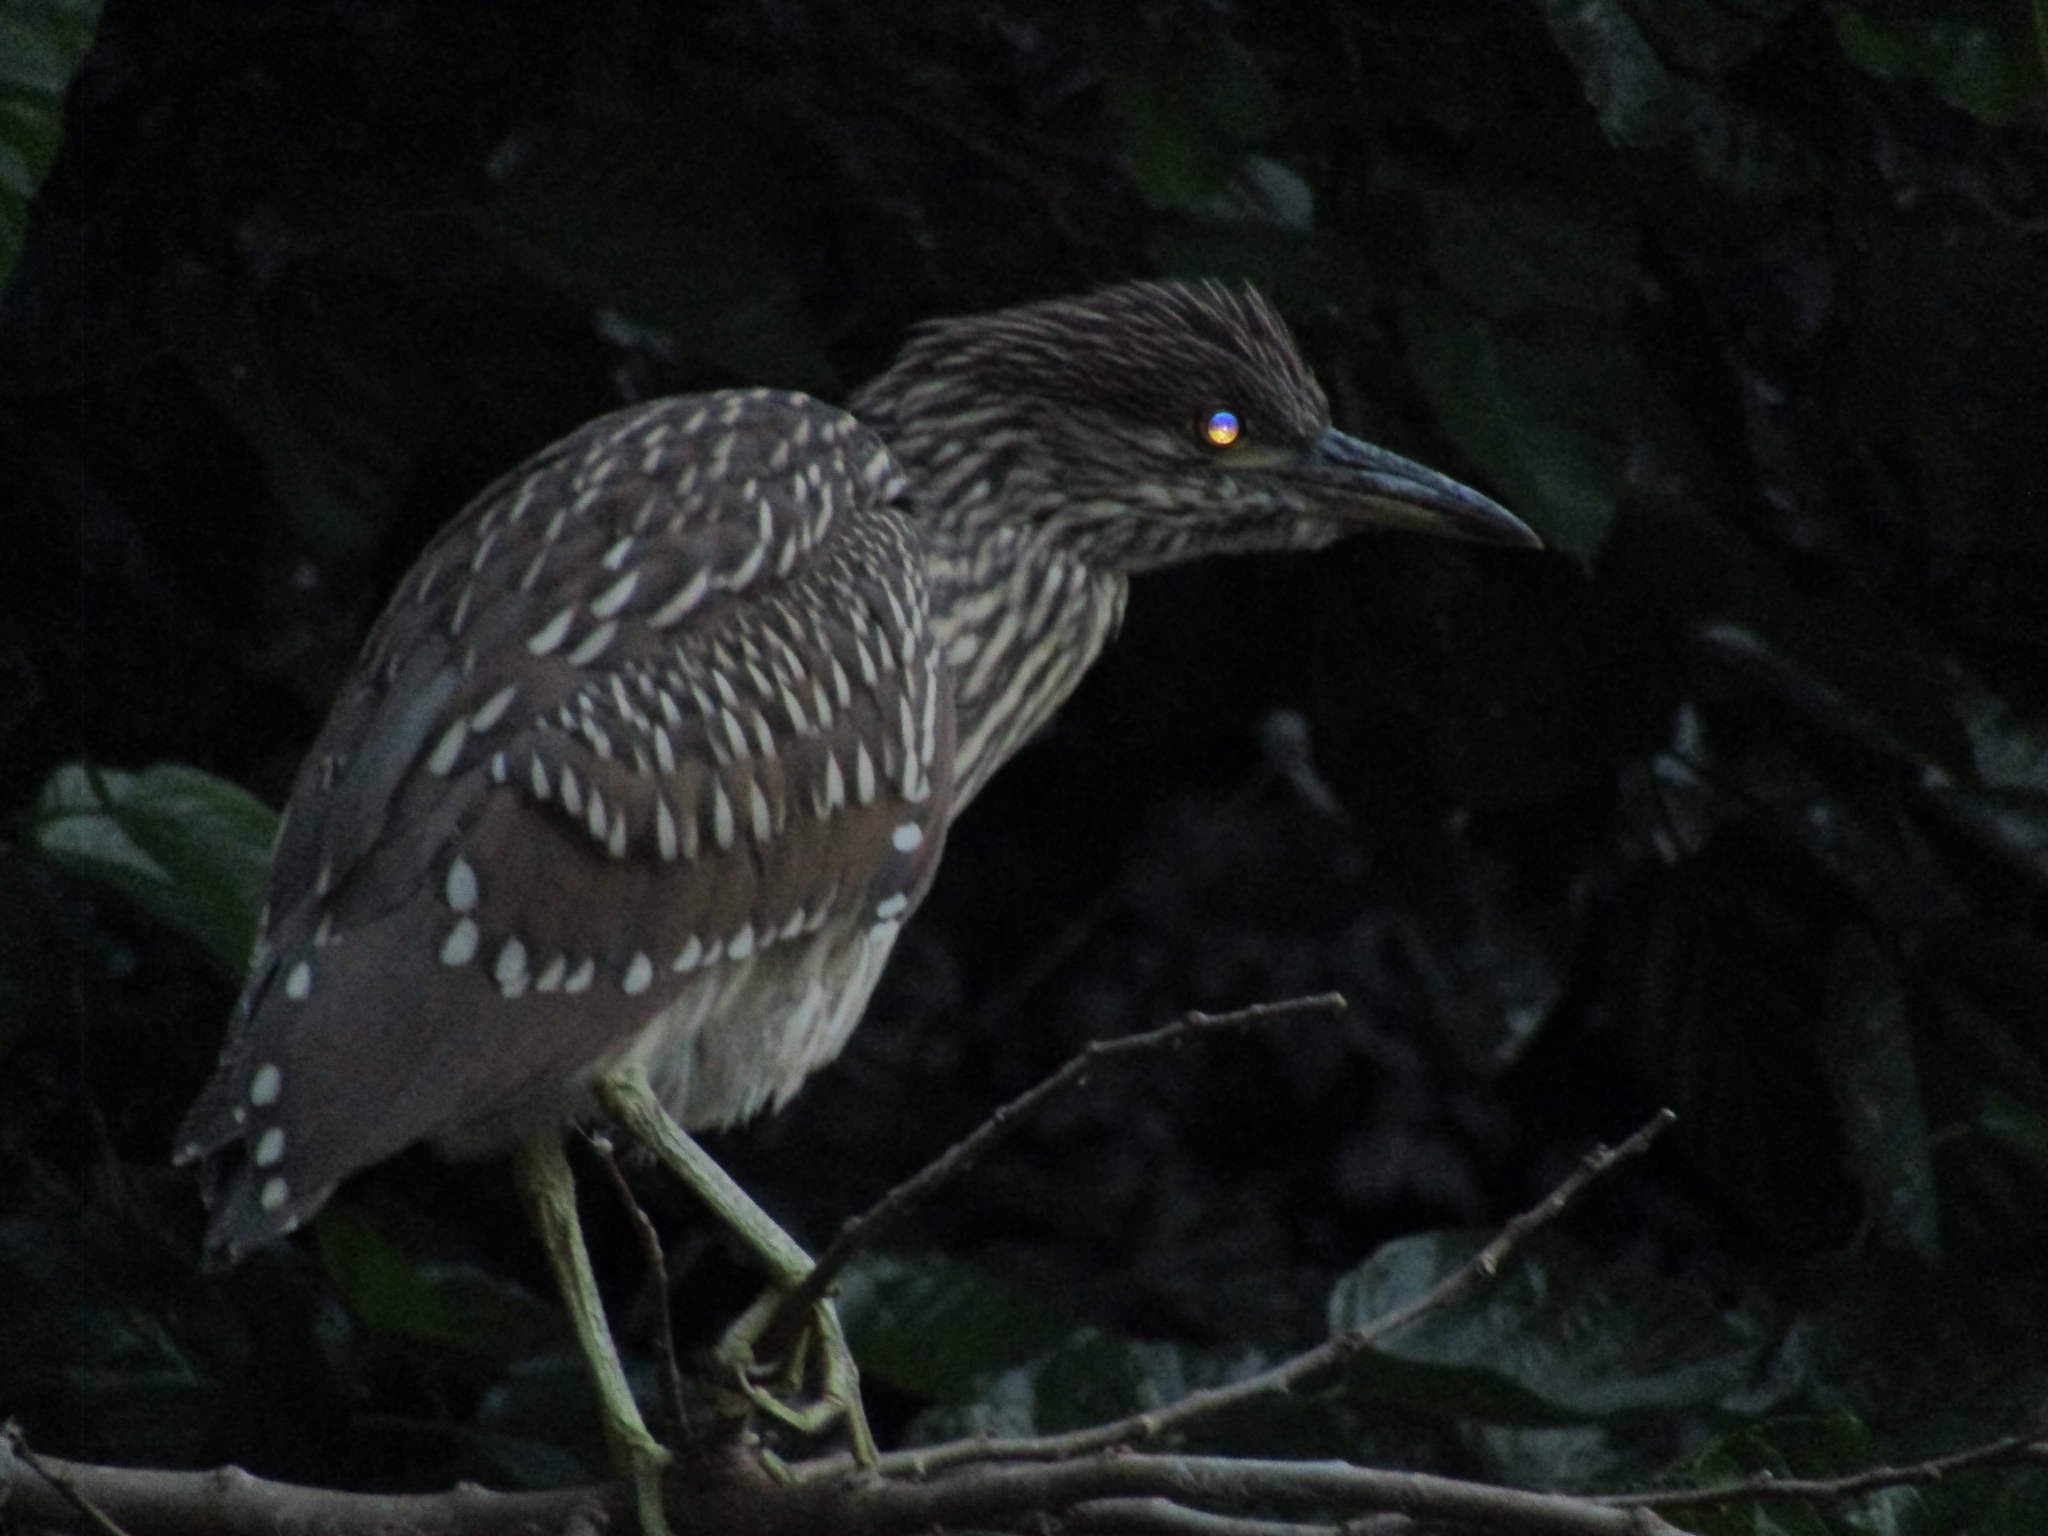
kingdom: Animalia
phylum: Chordata
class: Aves
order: Pelecaniformes
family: Ardeidae
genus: Nycticorax
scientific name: Nycticorax nycticorax
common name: Black-crowned night heron
